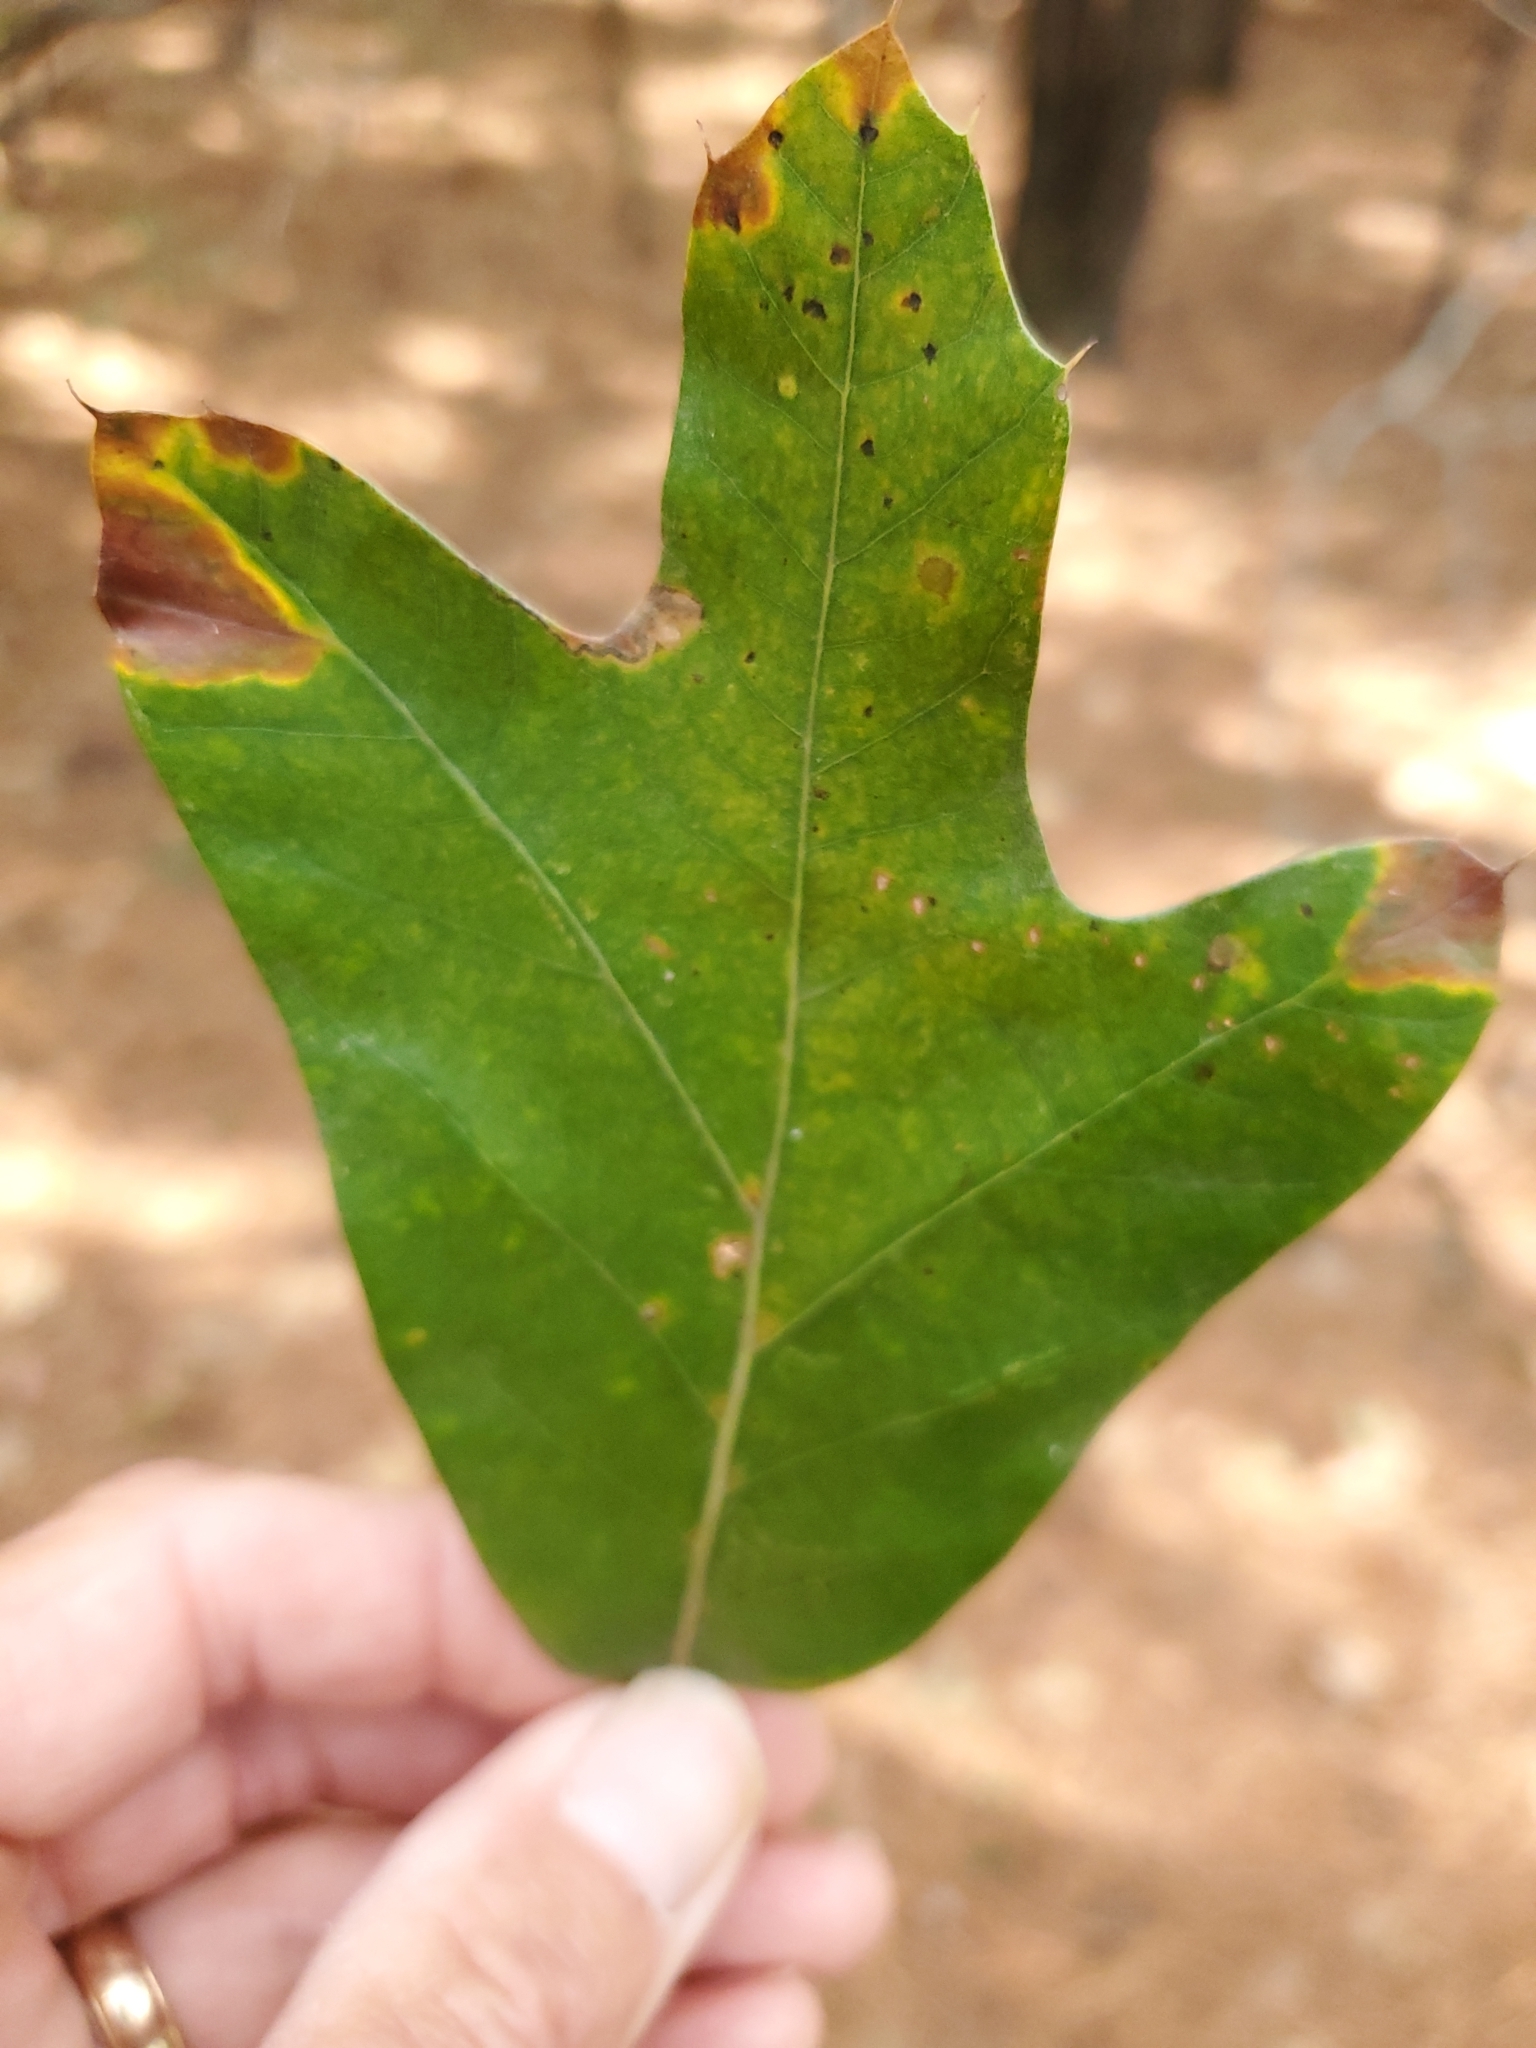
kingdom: Plantae
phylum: Tracheophyta
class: Magnoliopsida
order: Fagales
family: Fagaceae
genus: Quercus
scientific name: Quercus falcata
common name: Southern red oak
